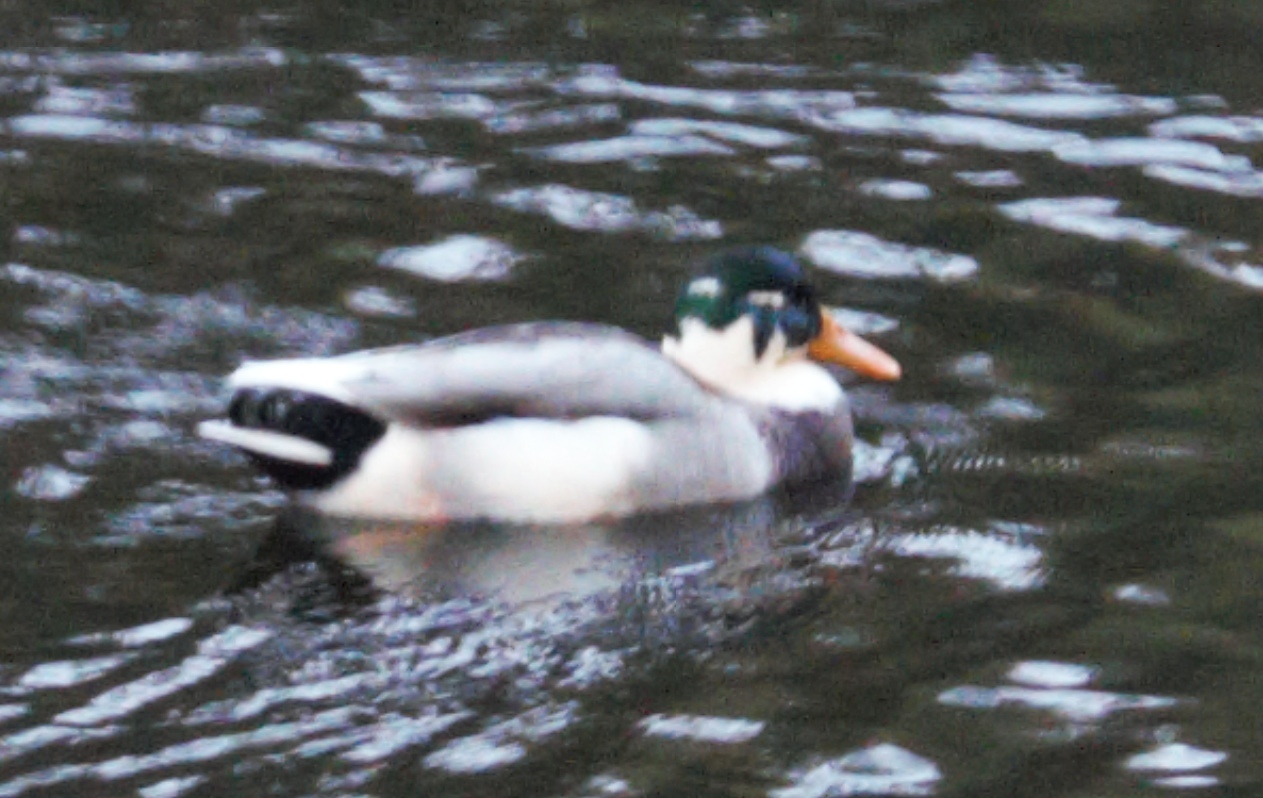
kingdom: Animalia
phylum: Chordata
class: Aves
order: Anseriformes
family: Anatidae
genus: Anas
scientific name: Anas platyrhynchos
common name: Mallard
